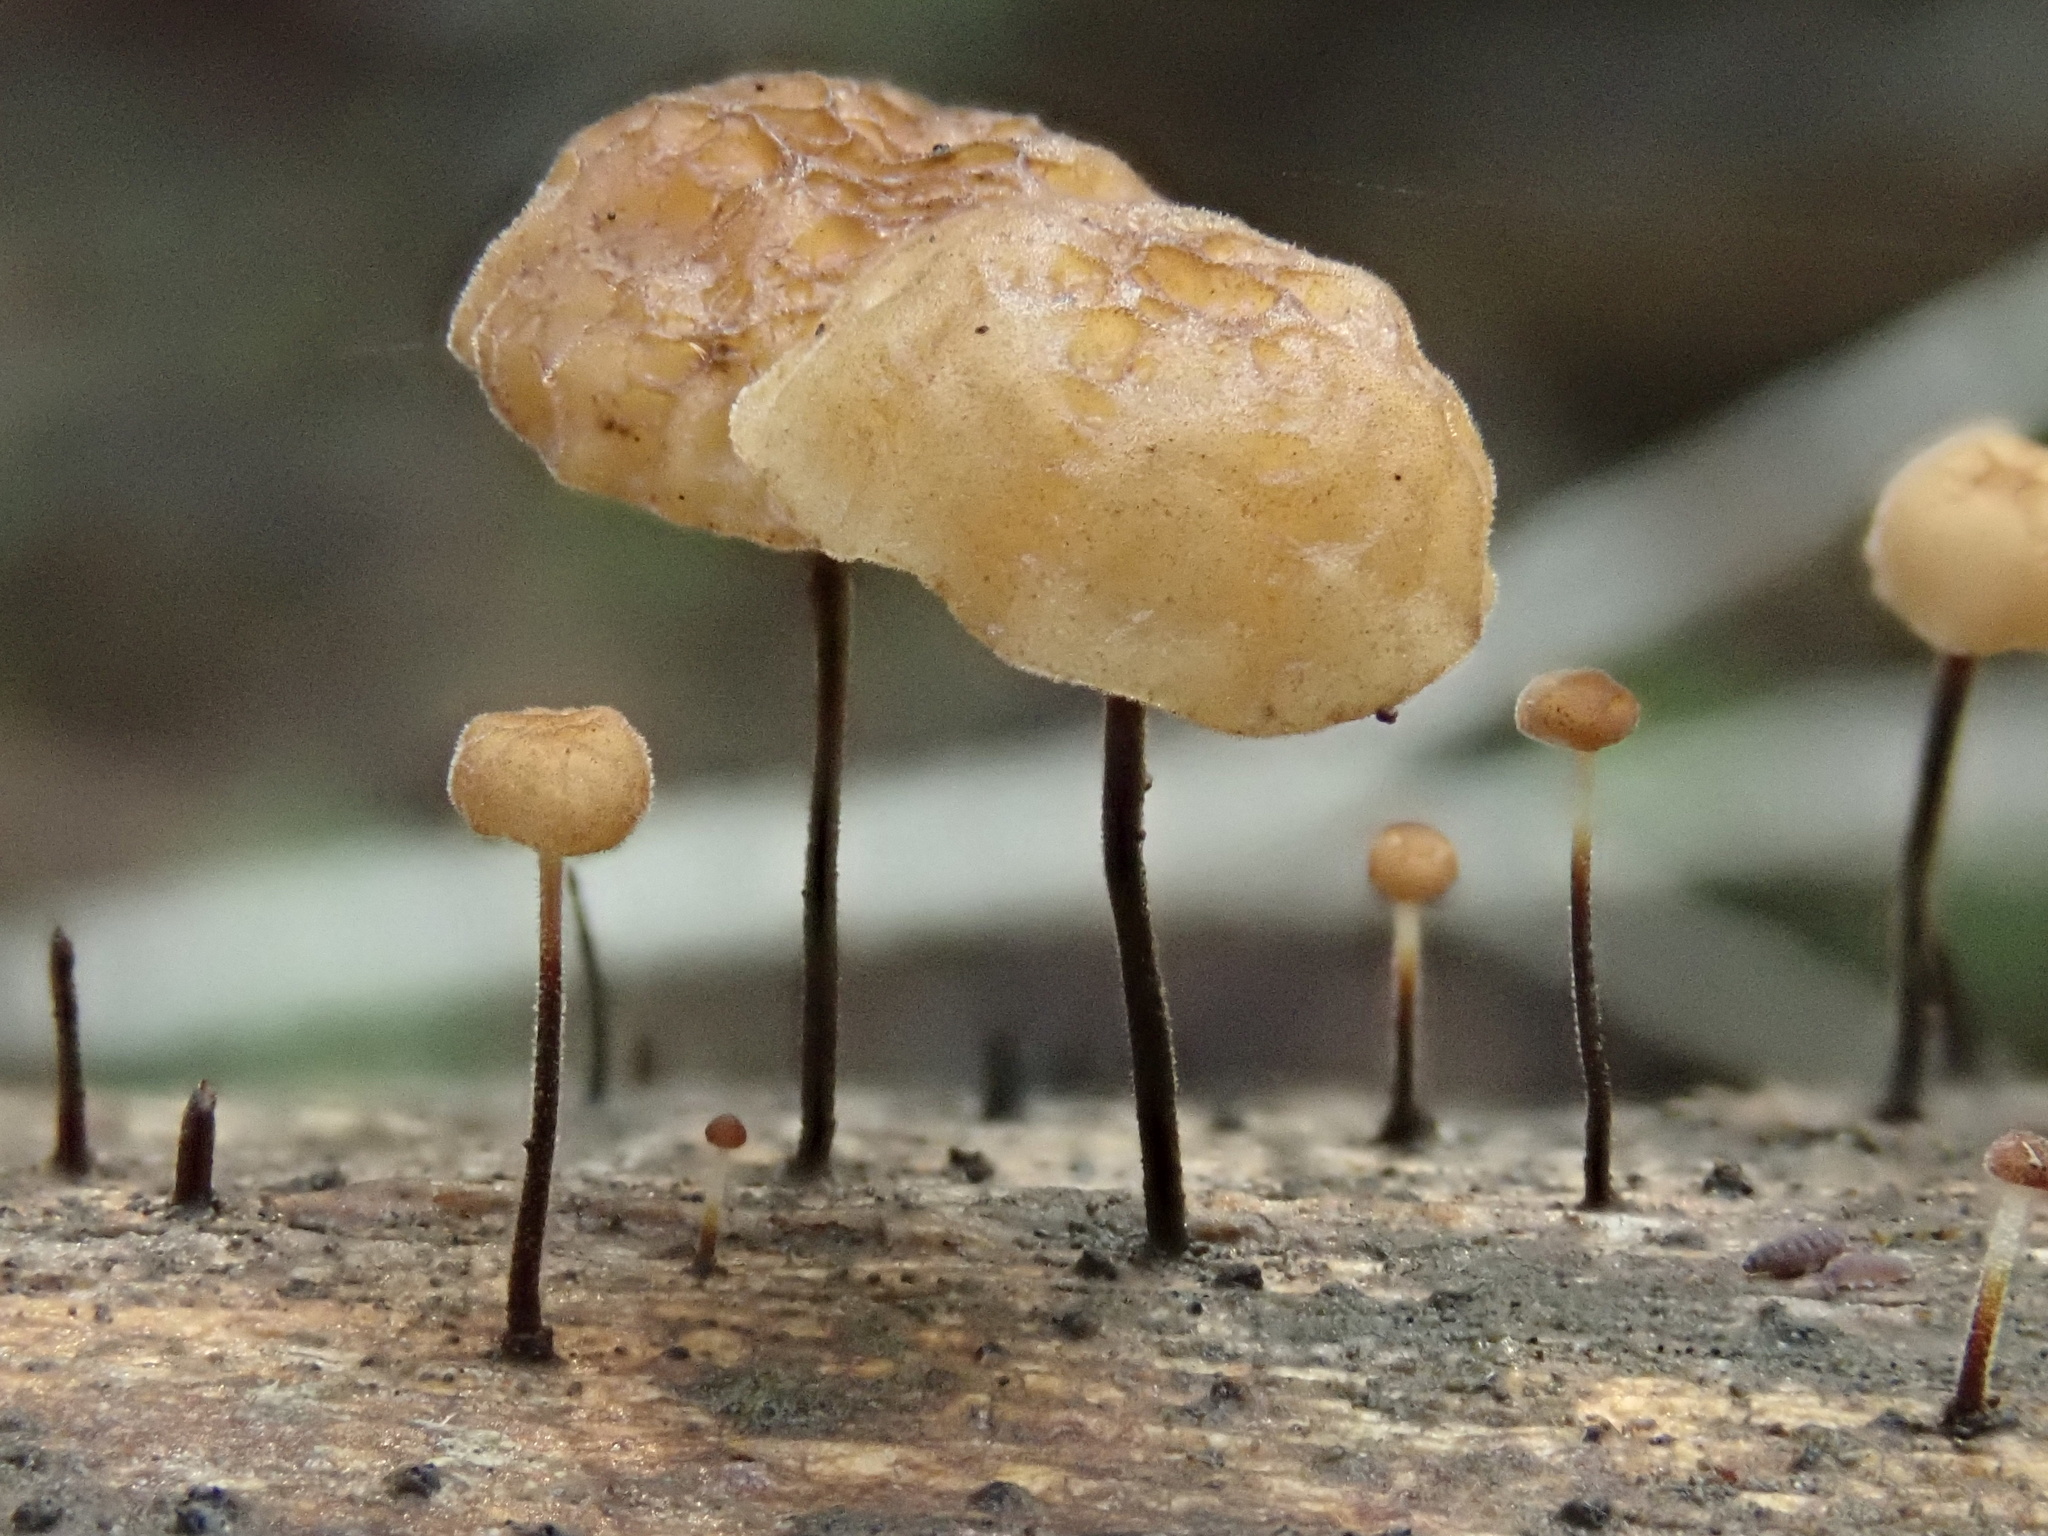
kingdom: Fungi
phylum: Basidiomycota
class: Agaricomycetes
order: Agaricales
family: Marasmiaceae
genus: Marasmius
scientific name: Marasmius alveolaris
